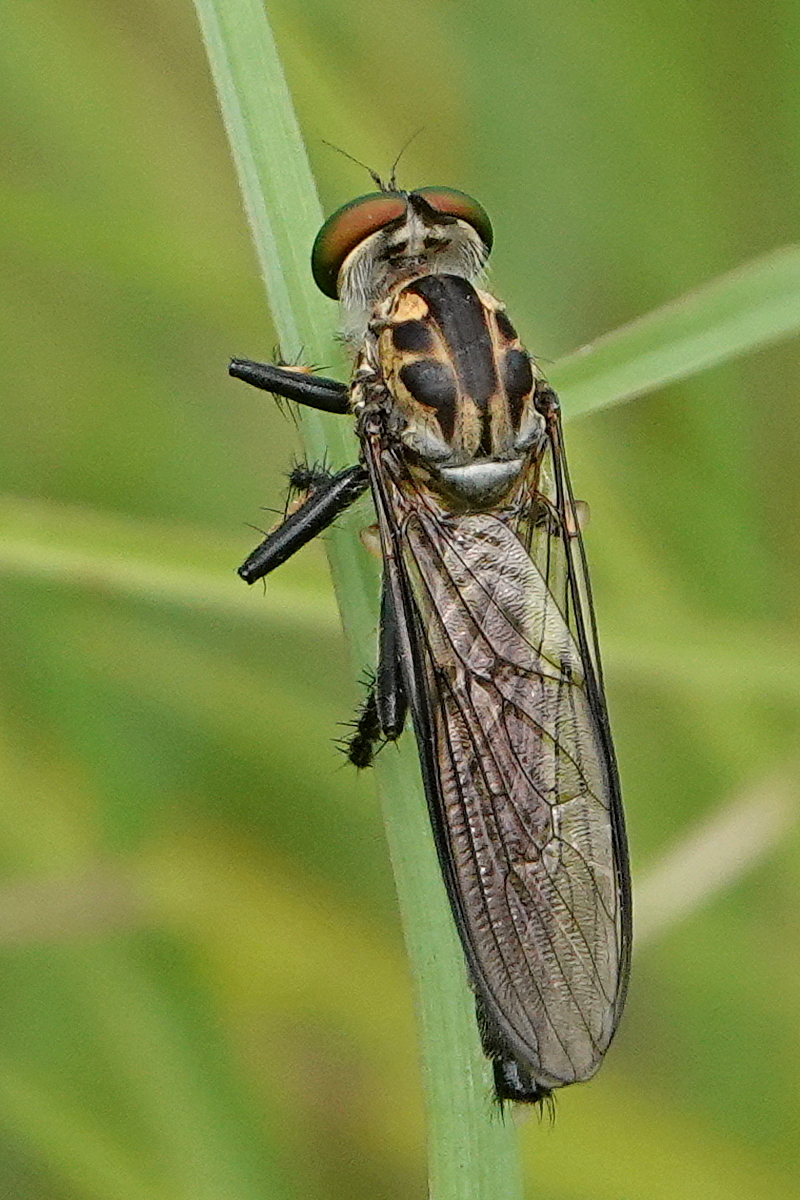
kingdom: Animalia
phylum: Arthropoda
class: Insecta
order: Diptera
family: Asilidae
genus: Ommatius
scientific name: Ommatius coeraebus
